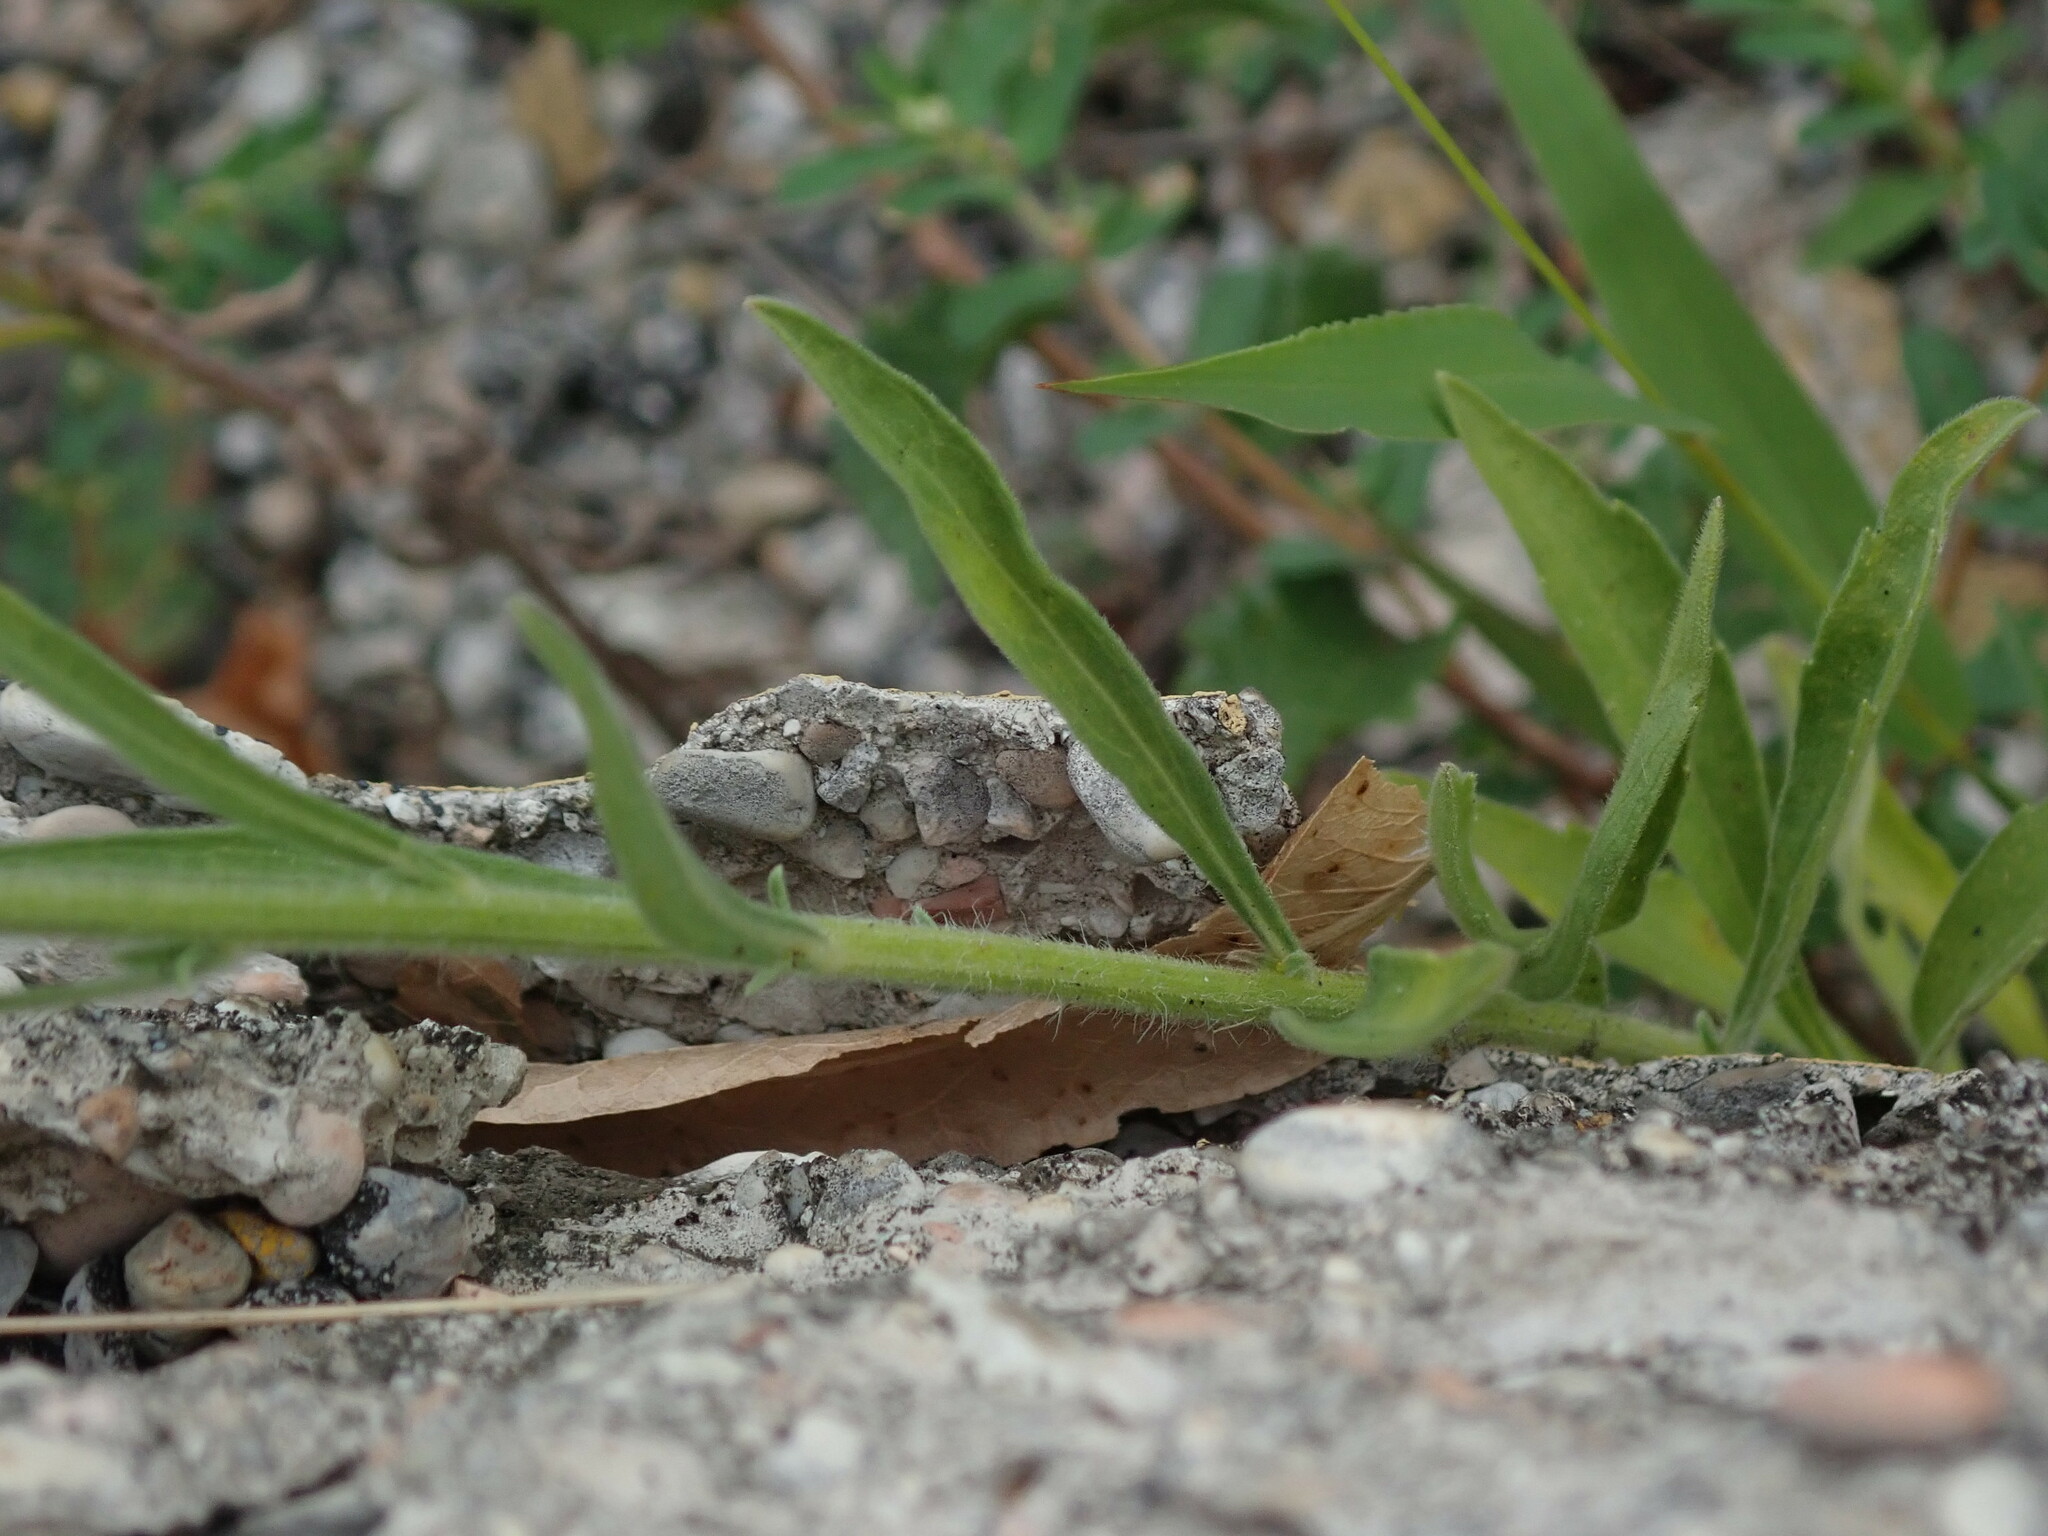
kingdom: Plantae
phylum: Tracheophyta
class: Magnoliopsida
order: Asterales
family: Asteraceae
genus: Erigeron
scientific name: Erigeron sumatrensis
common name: Daisy
